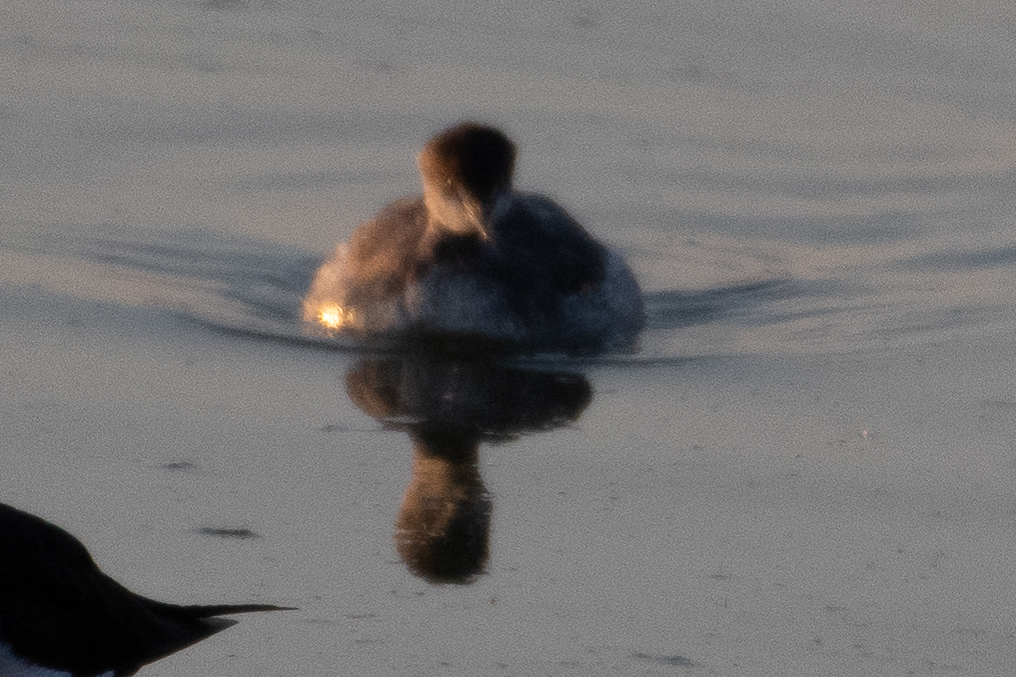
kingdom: Animalia
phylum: Chordata
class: Aves
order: Podicipediformes
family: Podicipedidae
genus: Podiceps
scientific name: Podiceps nigricollis
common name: Black-necked grebe
